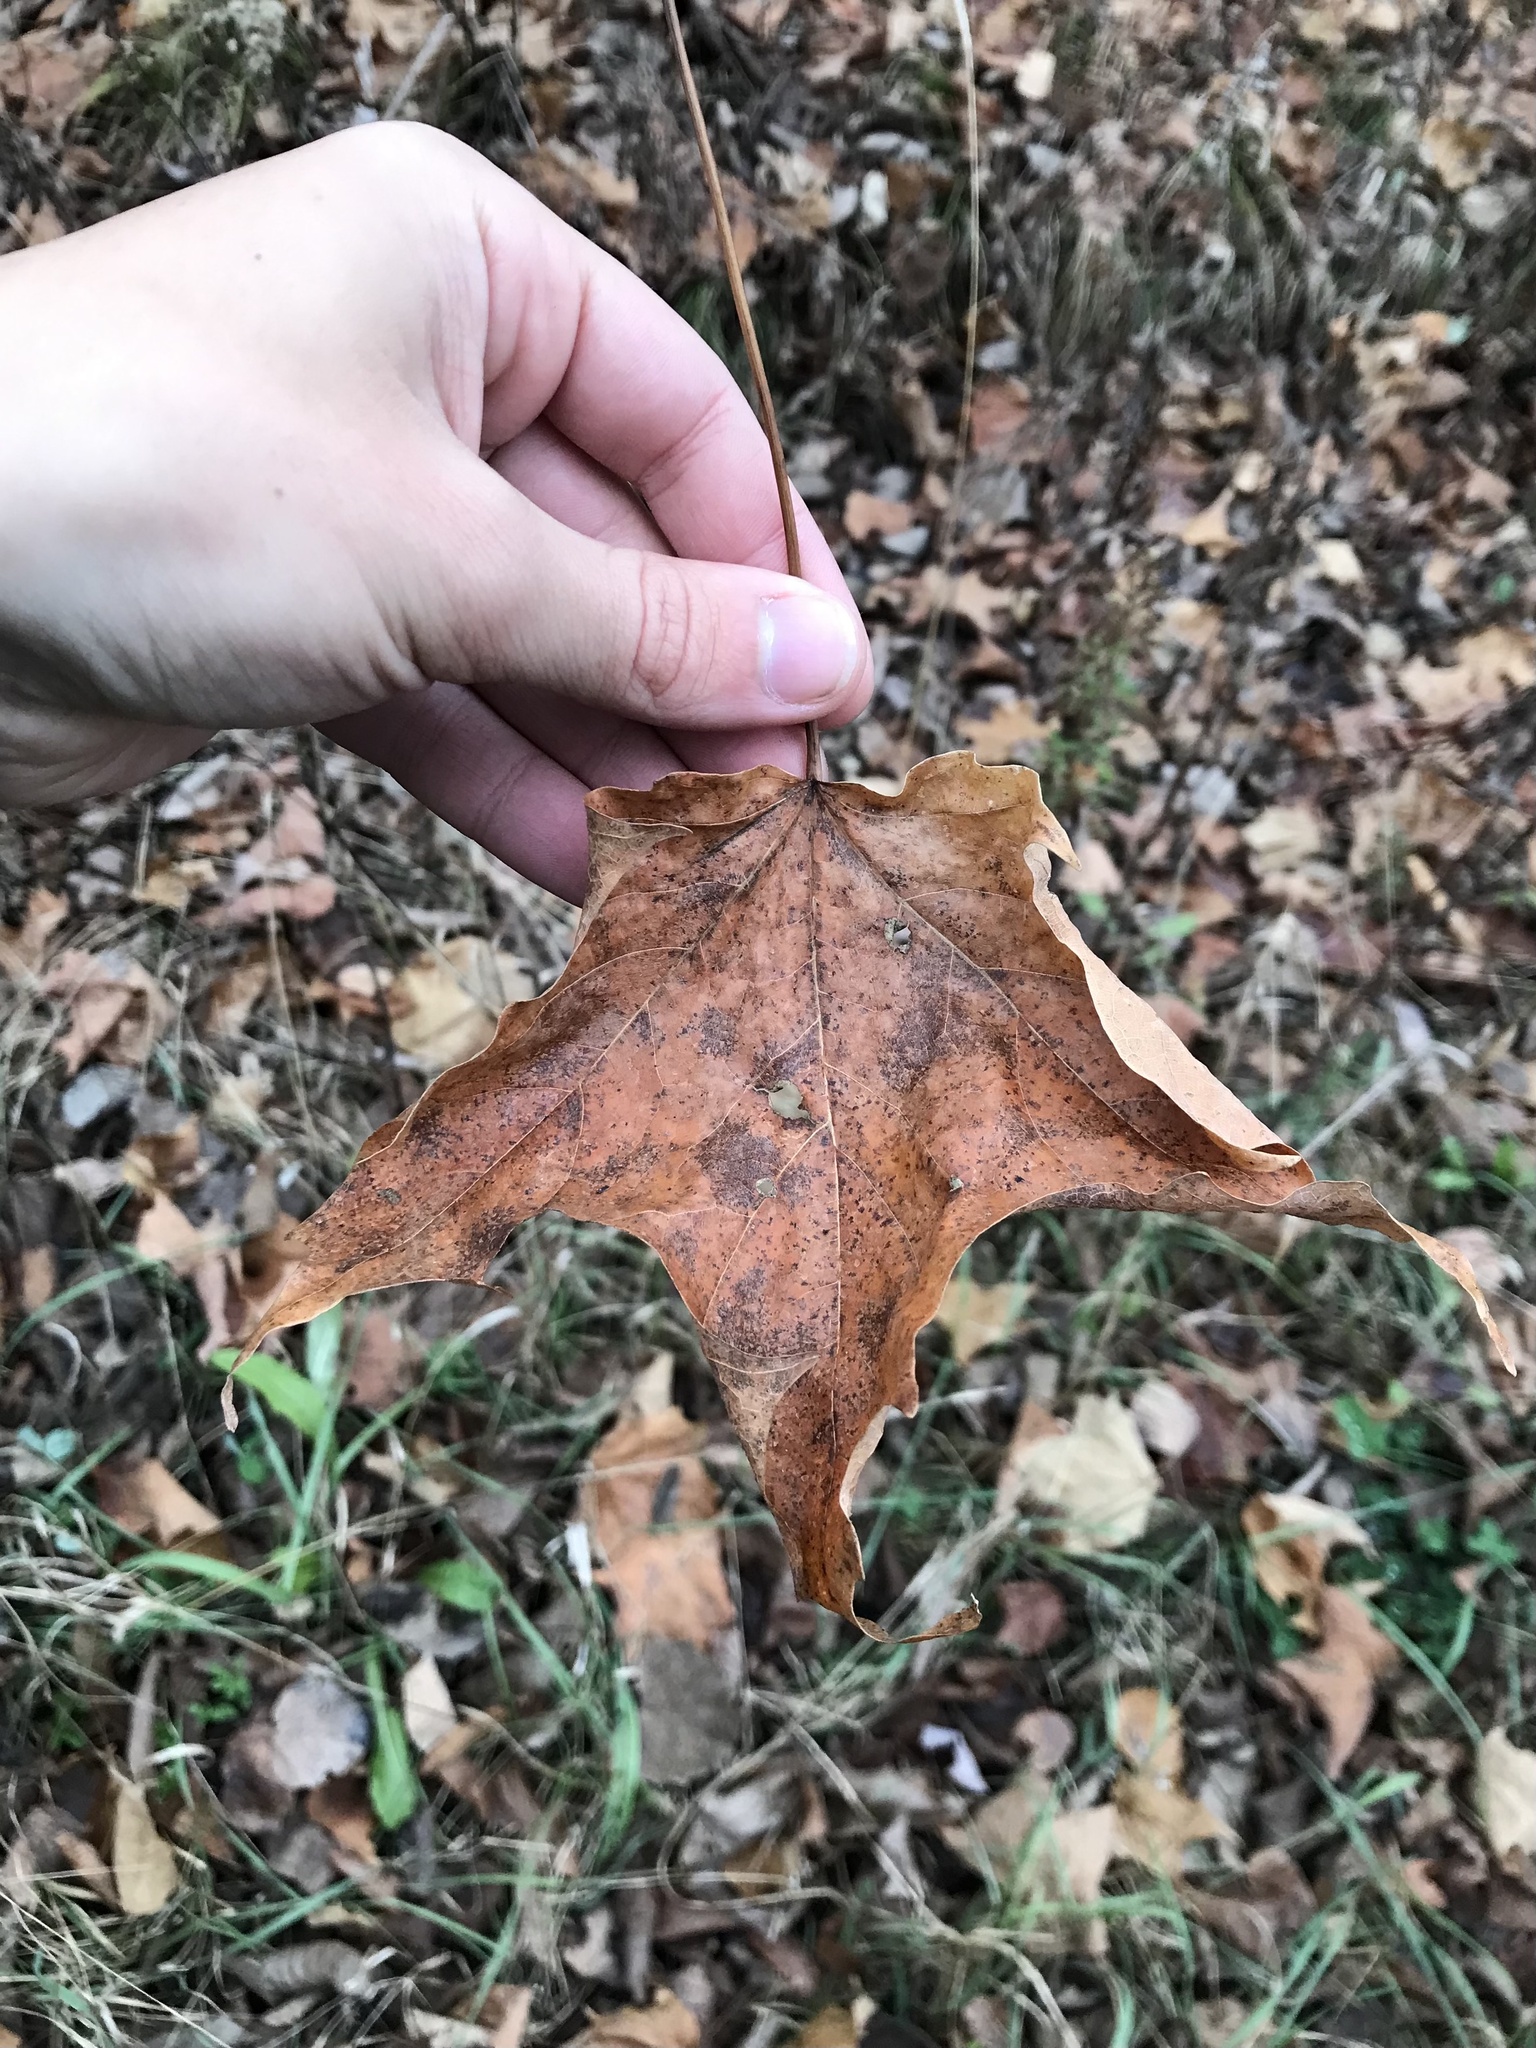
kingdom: Plantae
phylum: Tracheophyta
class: Magnoliopsida
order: Sapindales
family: Sapindaceae
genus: Acer
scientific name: Acer saccharum
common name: Sugar maple
